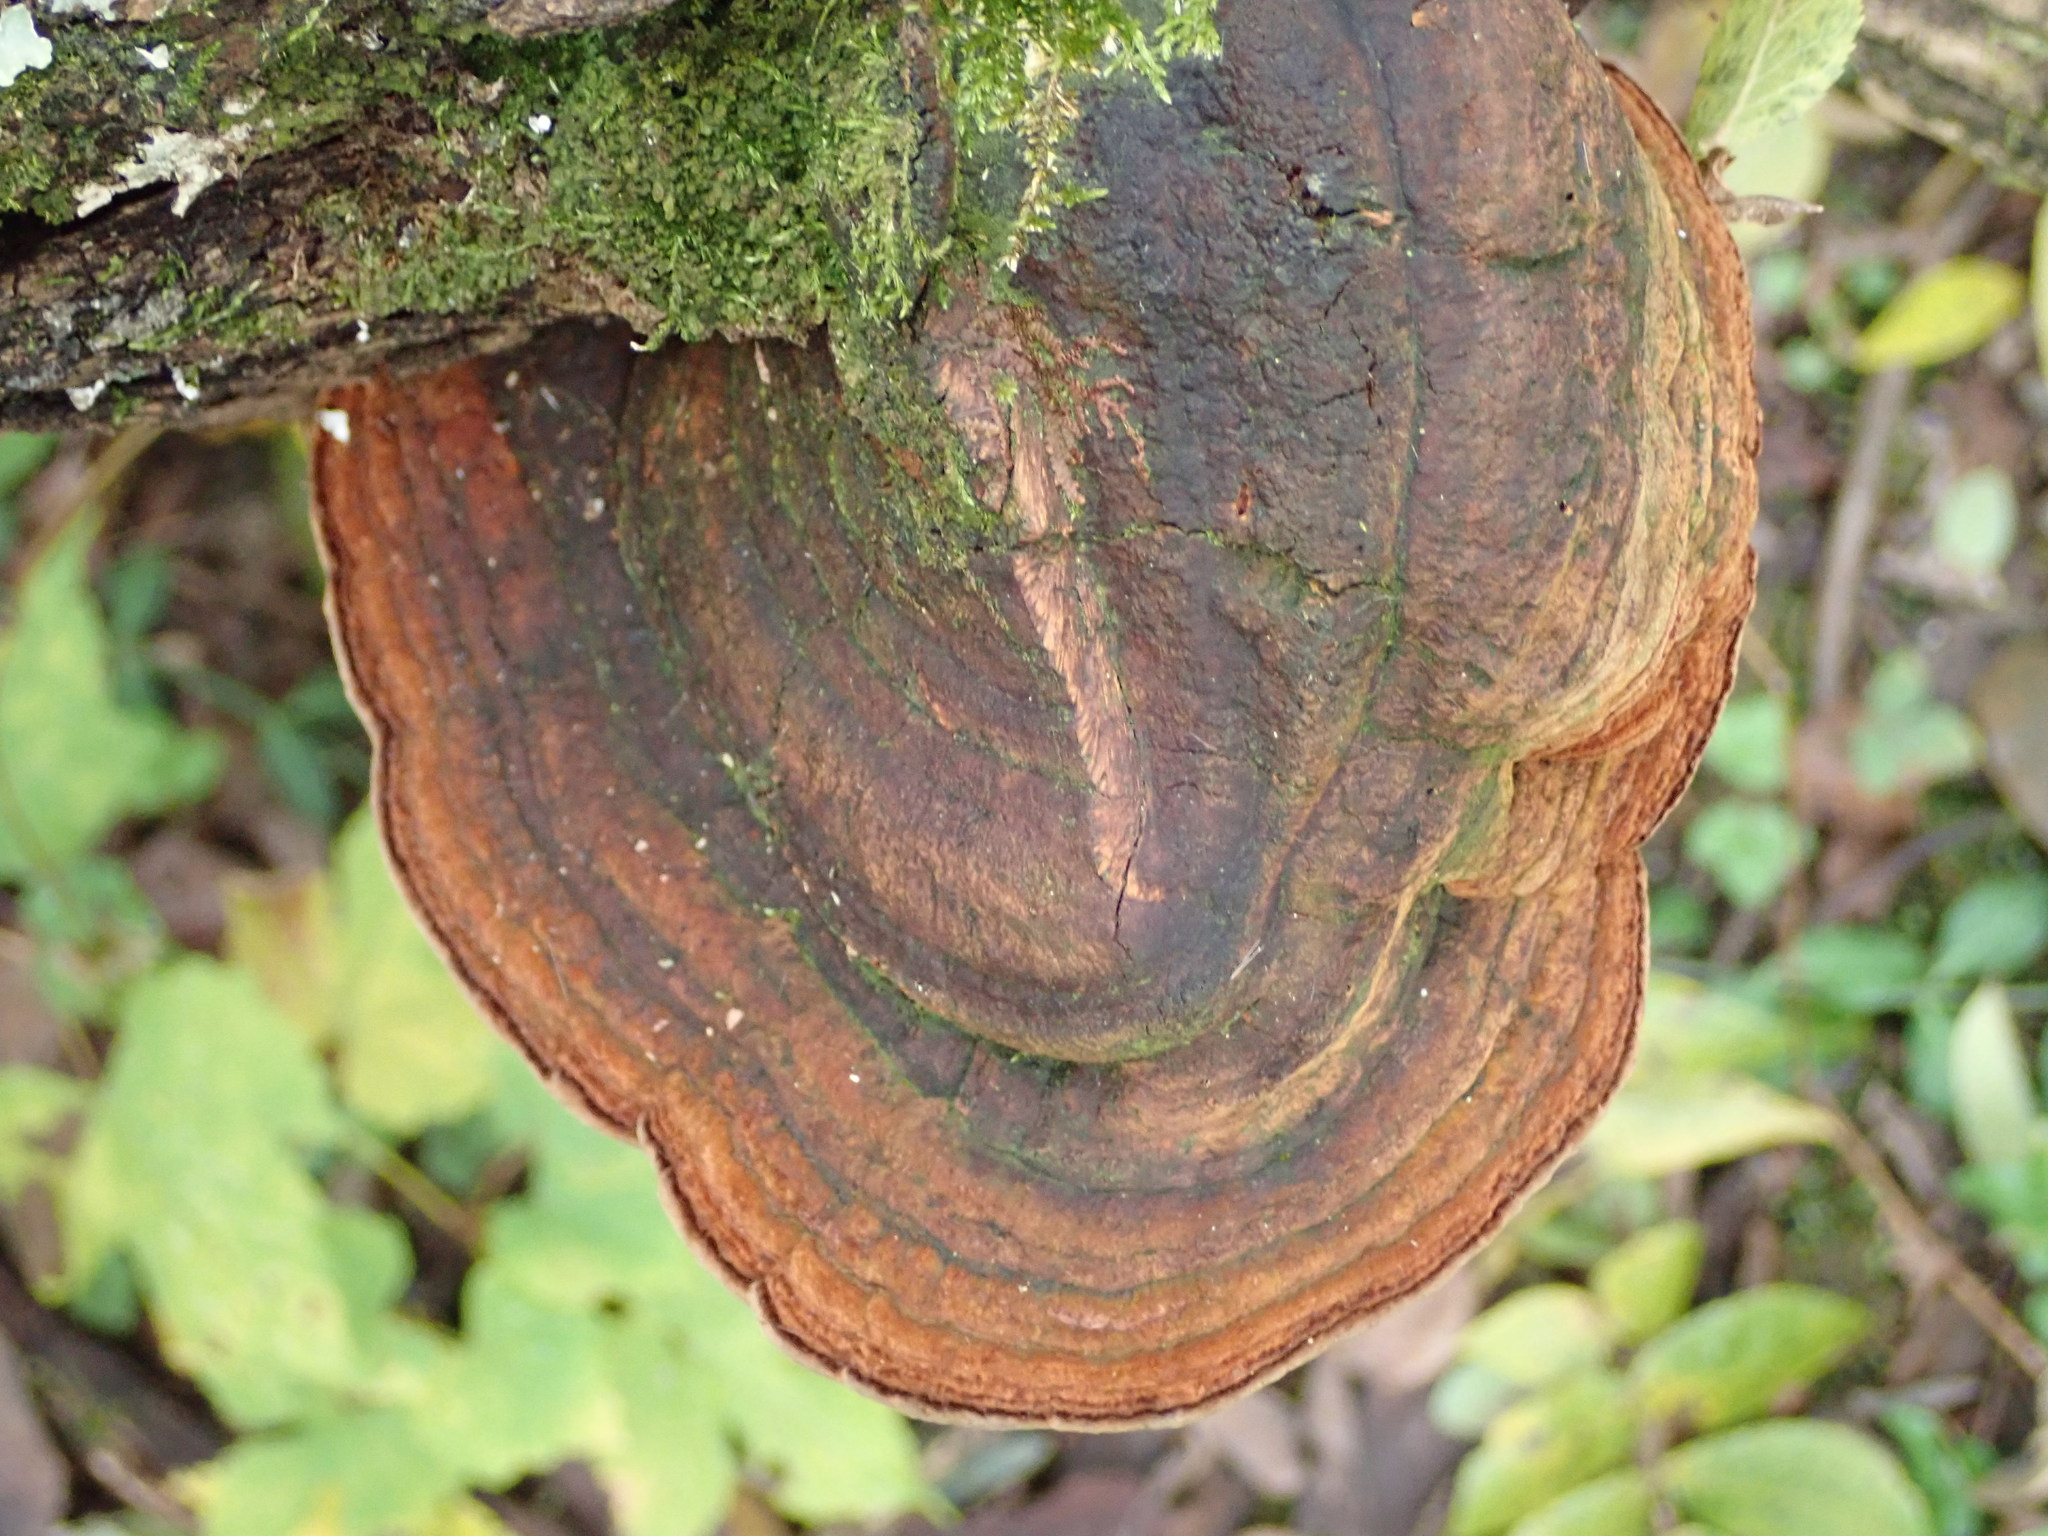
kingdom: Fungi
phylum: Basidiomycota
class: Agaricomycetes
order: Polyporales
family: Polyporaceae
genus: Ganoderma
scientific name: Ganoderma applanatum
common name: Artist's bracket
